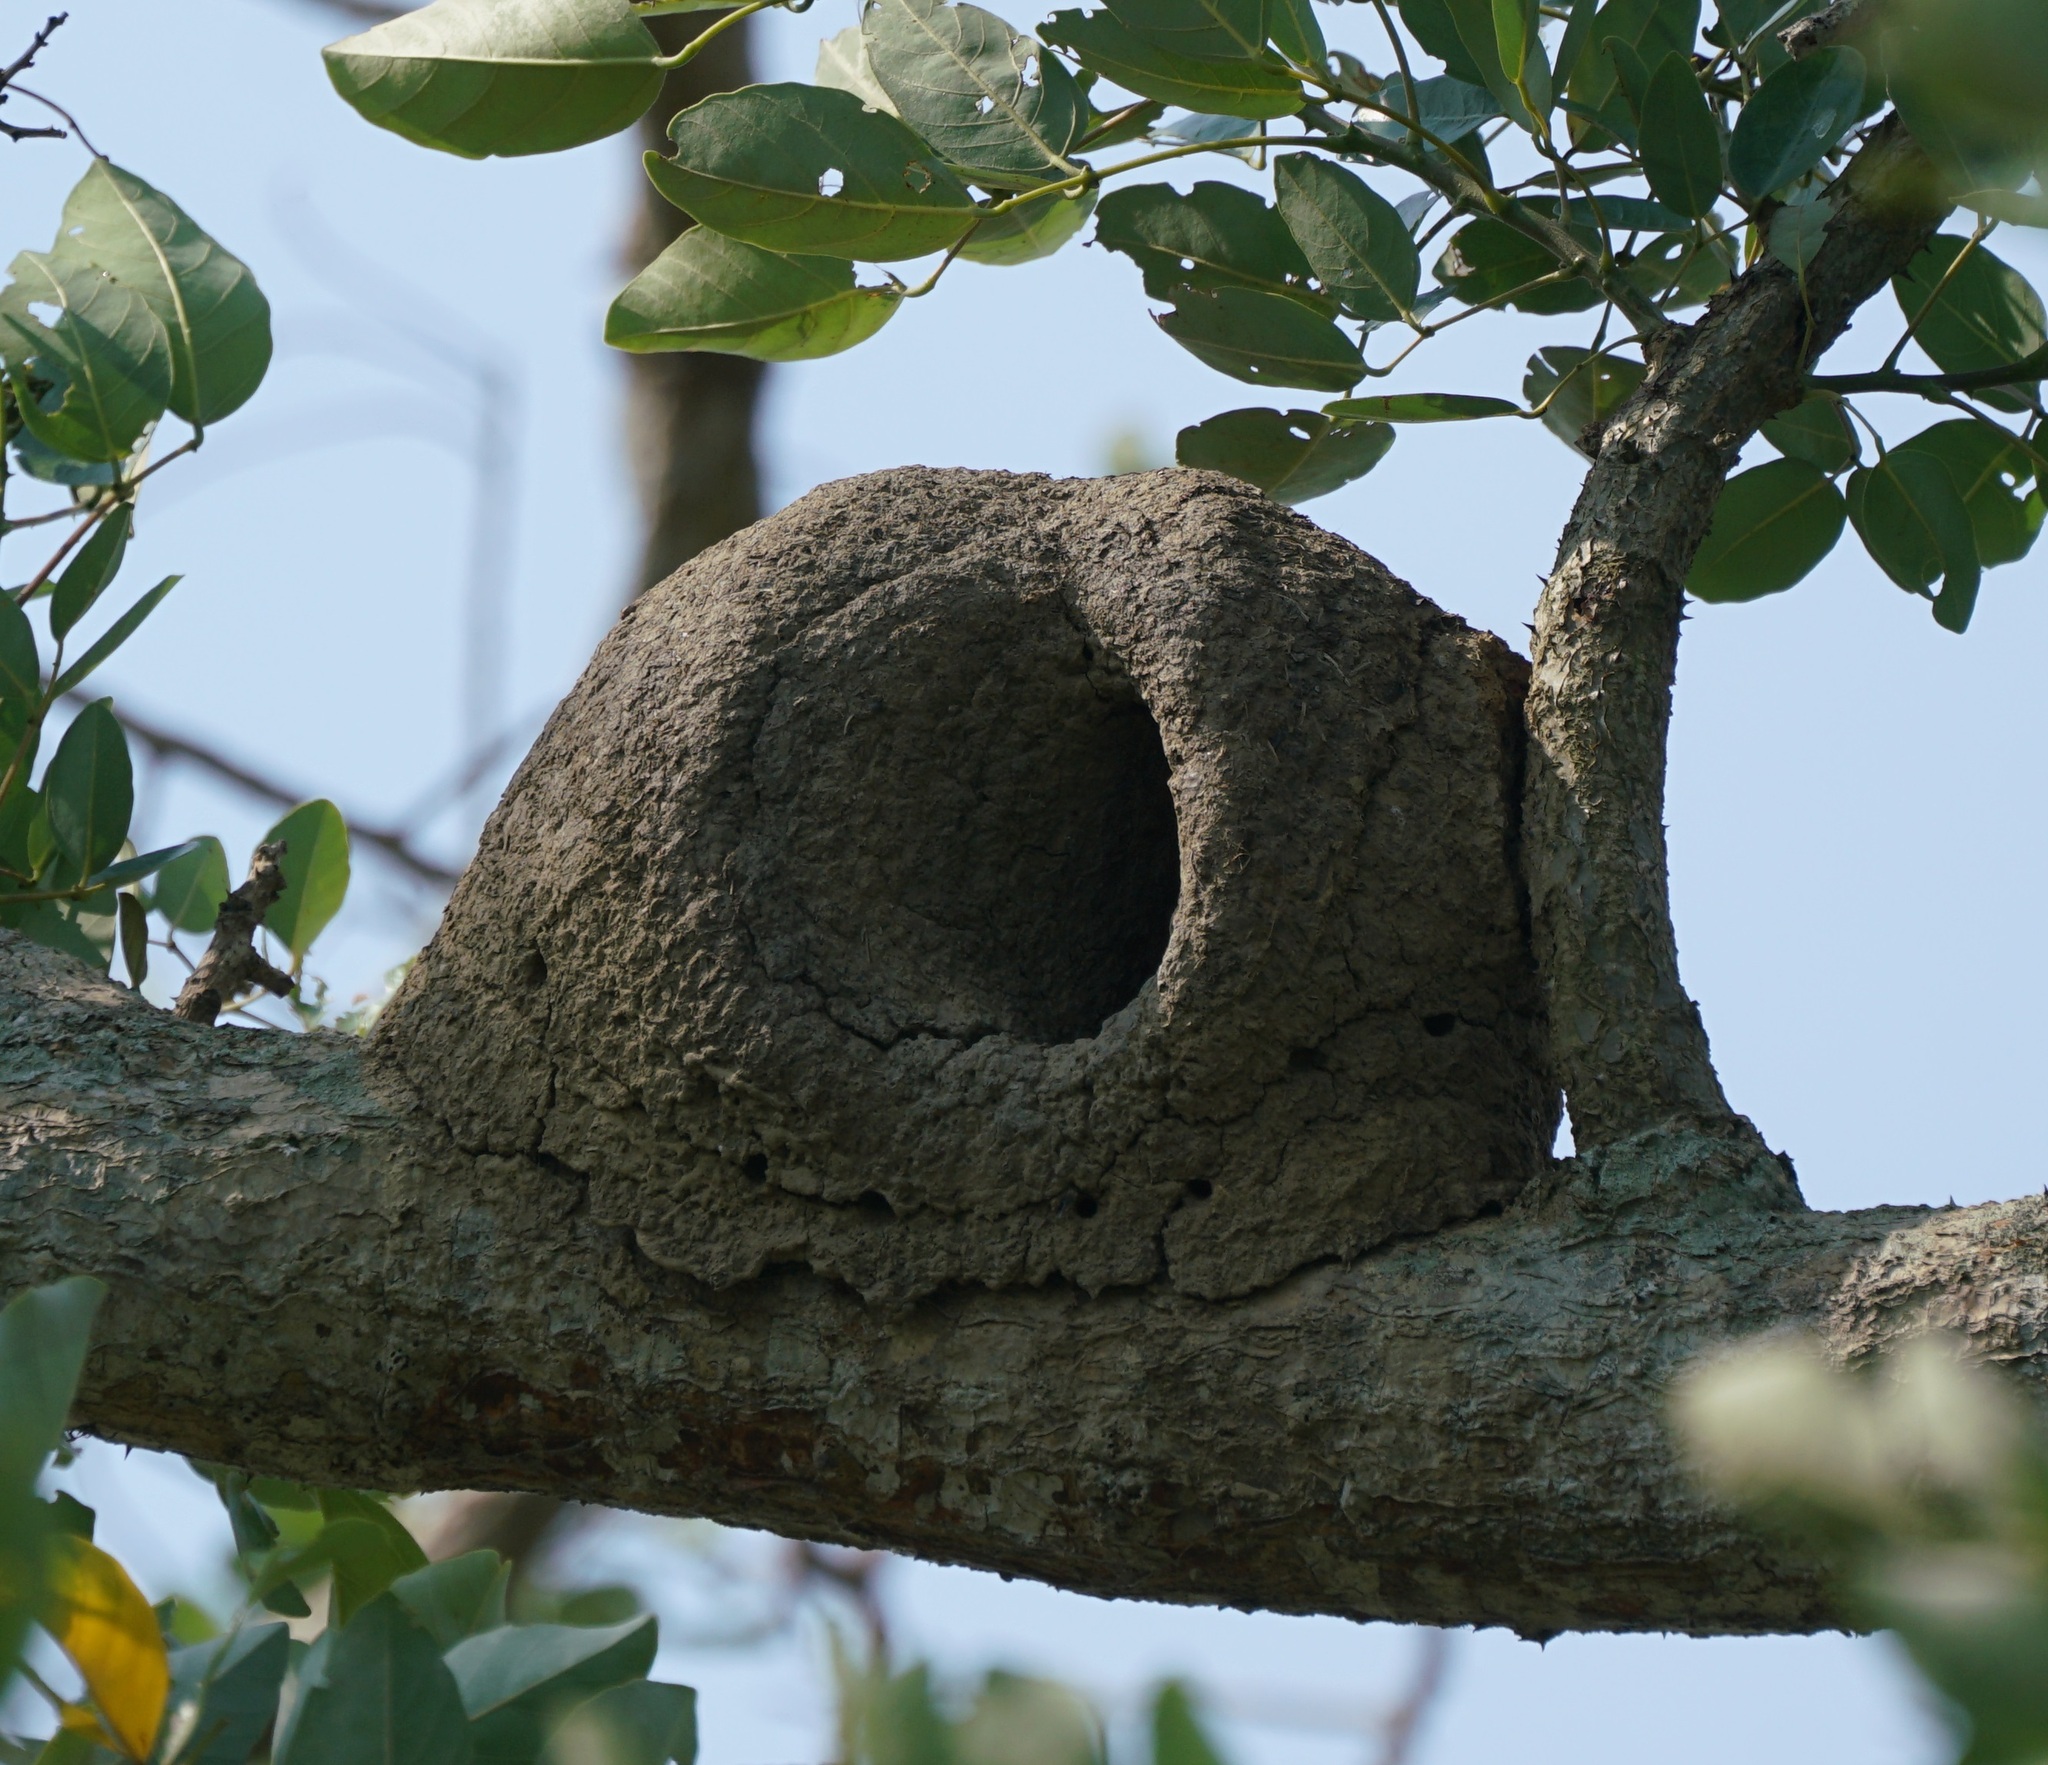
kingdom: Animalia
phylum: Chordata
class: Aves
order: Passeriformes
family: Furnariidae
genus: Furnarius
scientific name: Furnarius rufus
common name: Rufous hornero
